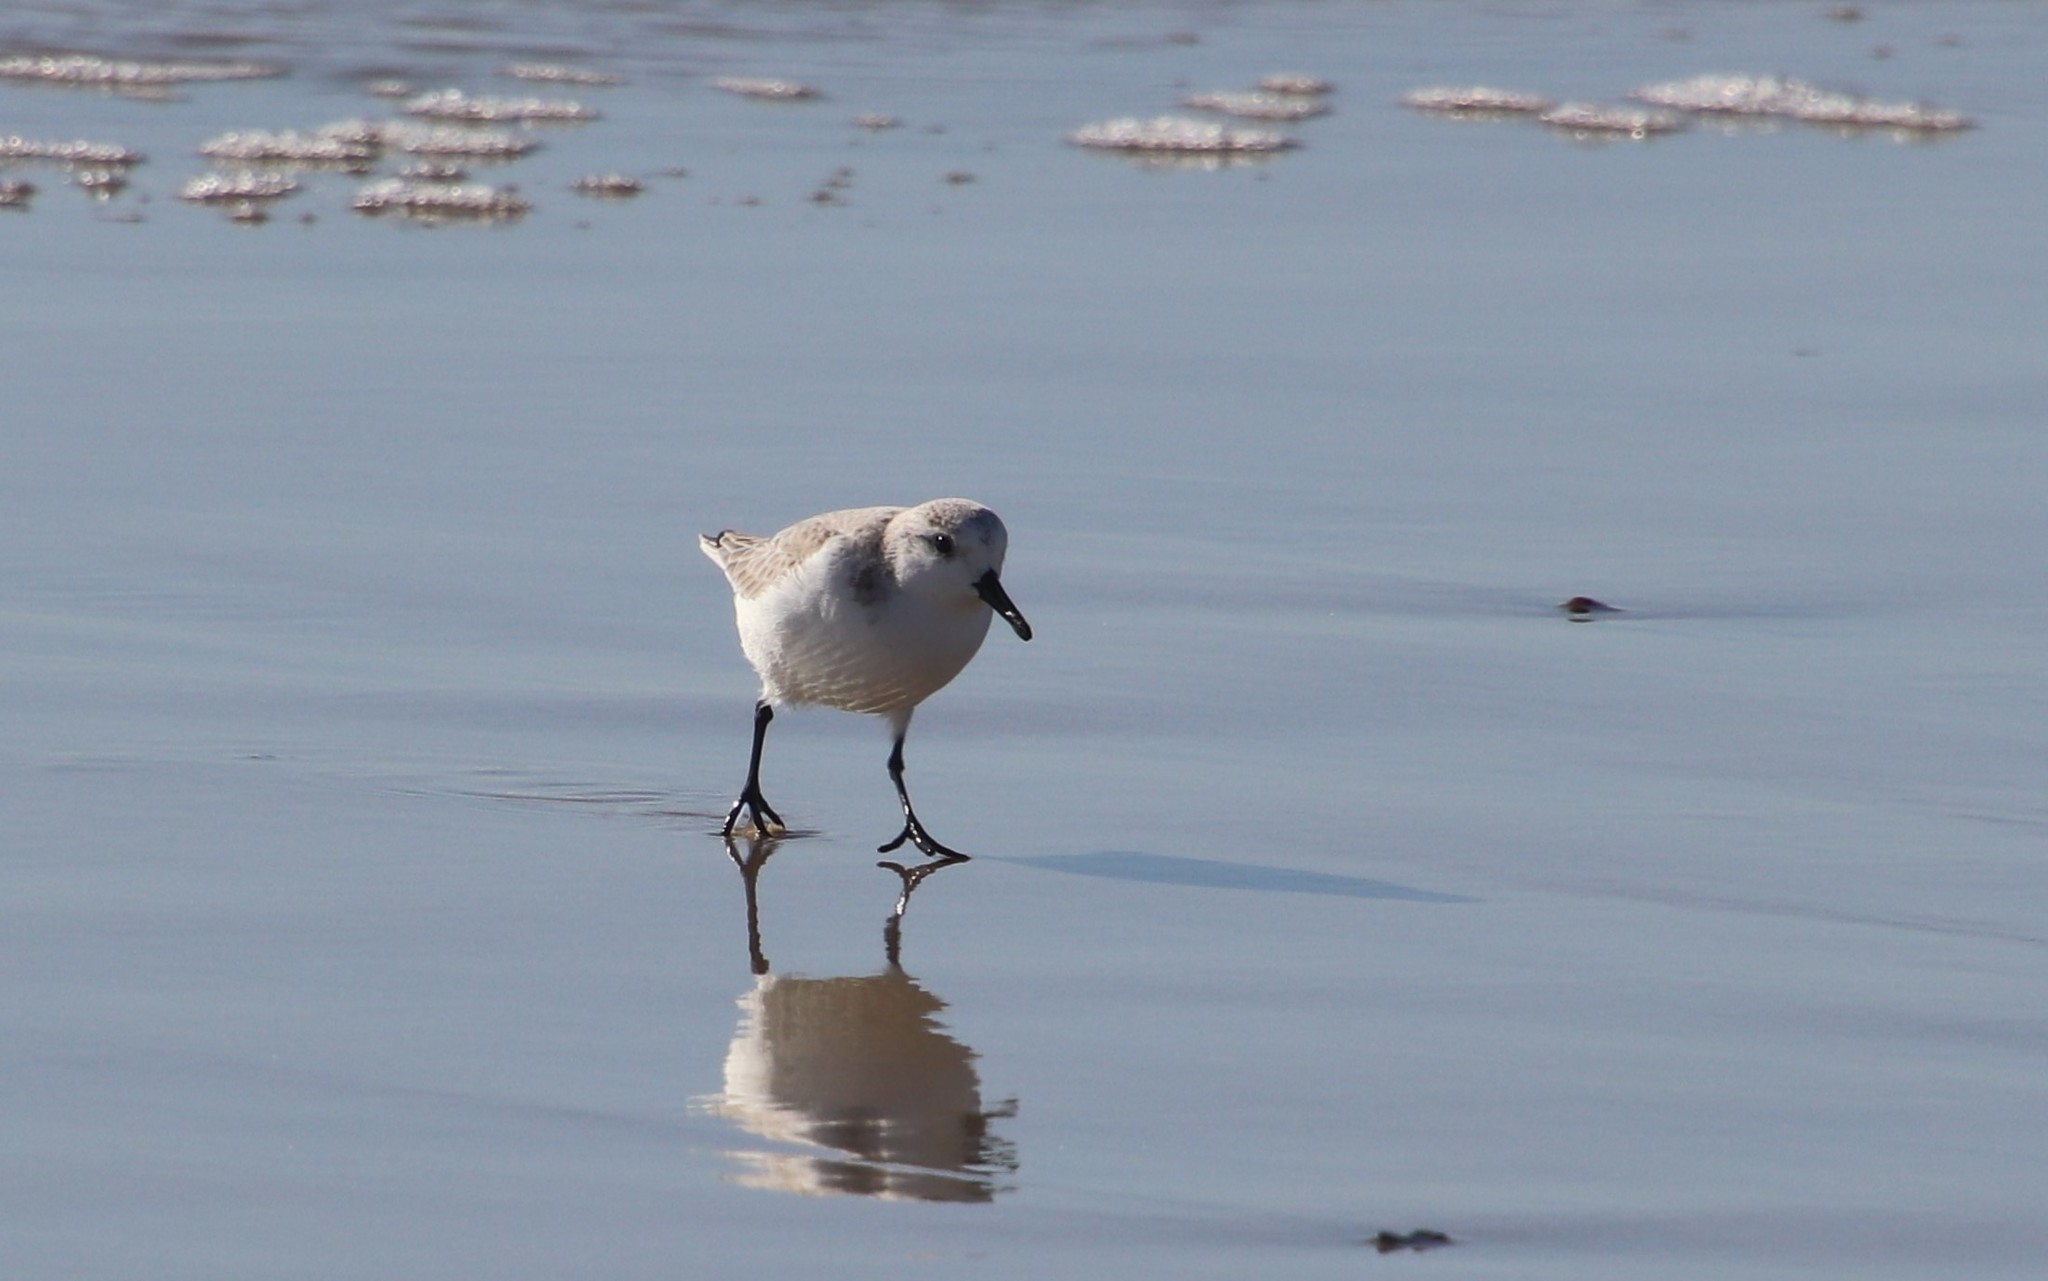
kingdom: Animalia
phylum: Chordata
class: Aves
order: Charadriiformes
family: Scolopacidae
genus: Calidris
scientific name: Calidris alba
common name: Sanderling
